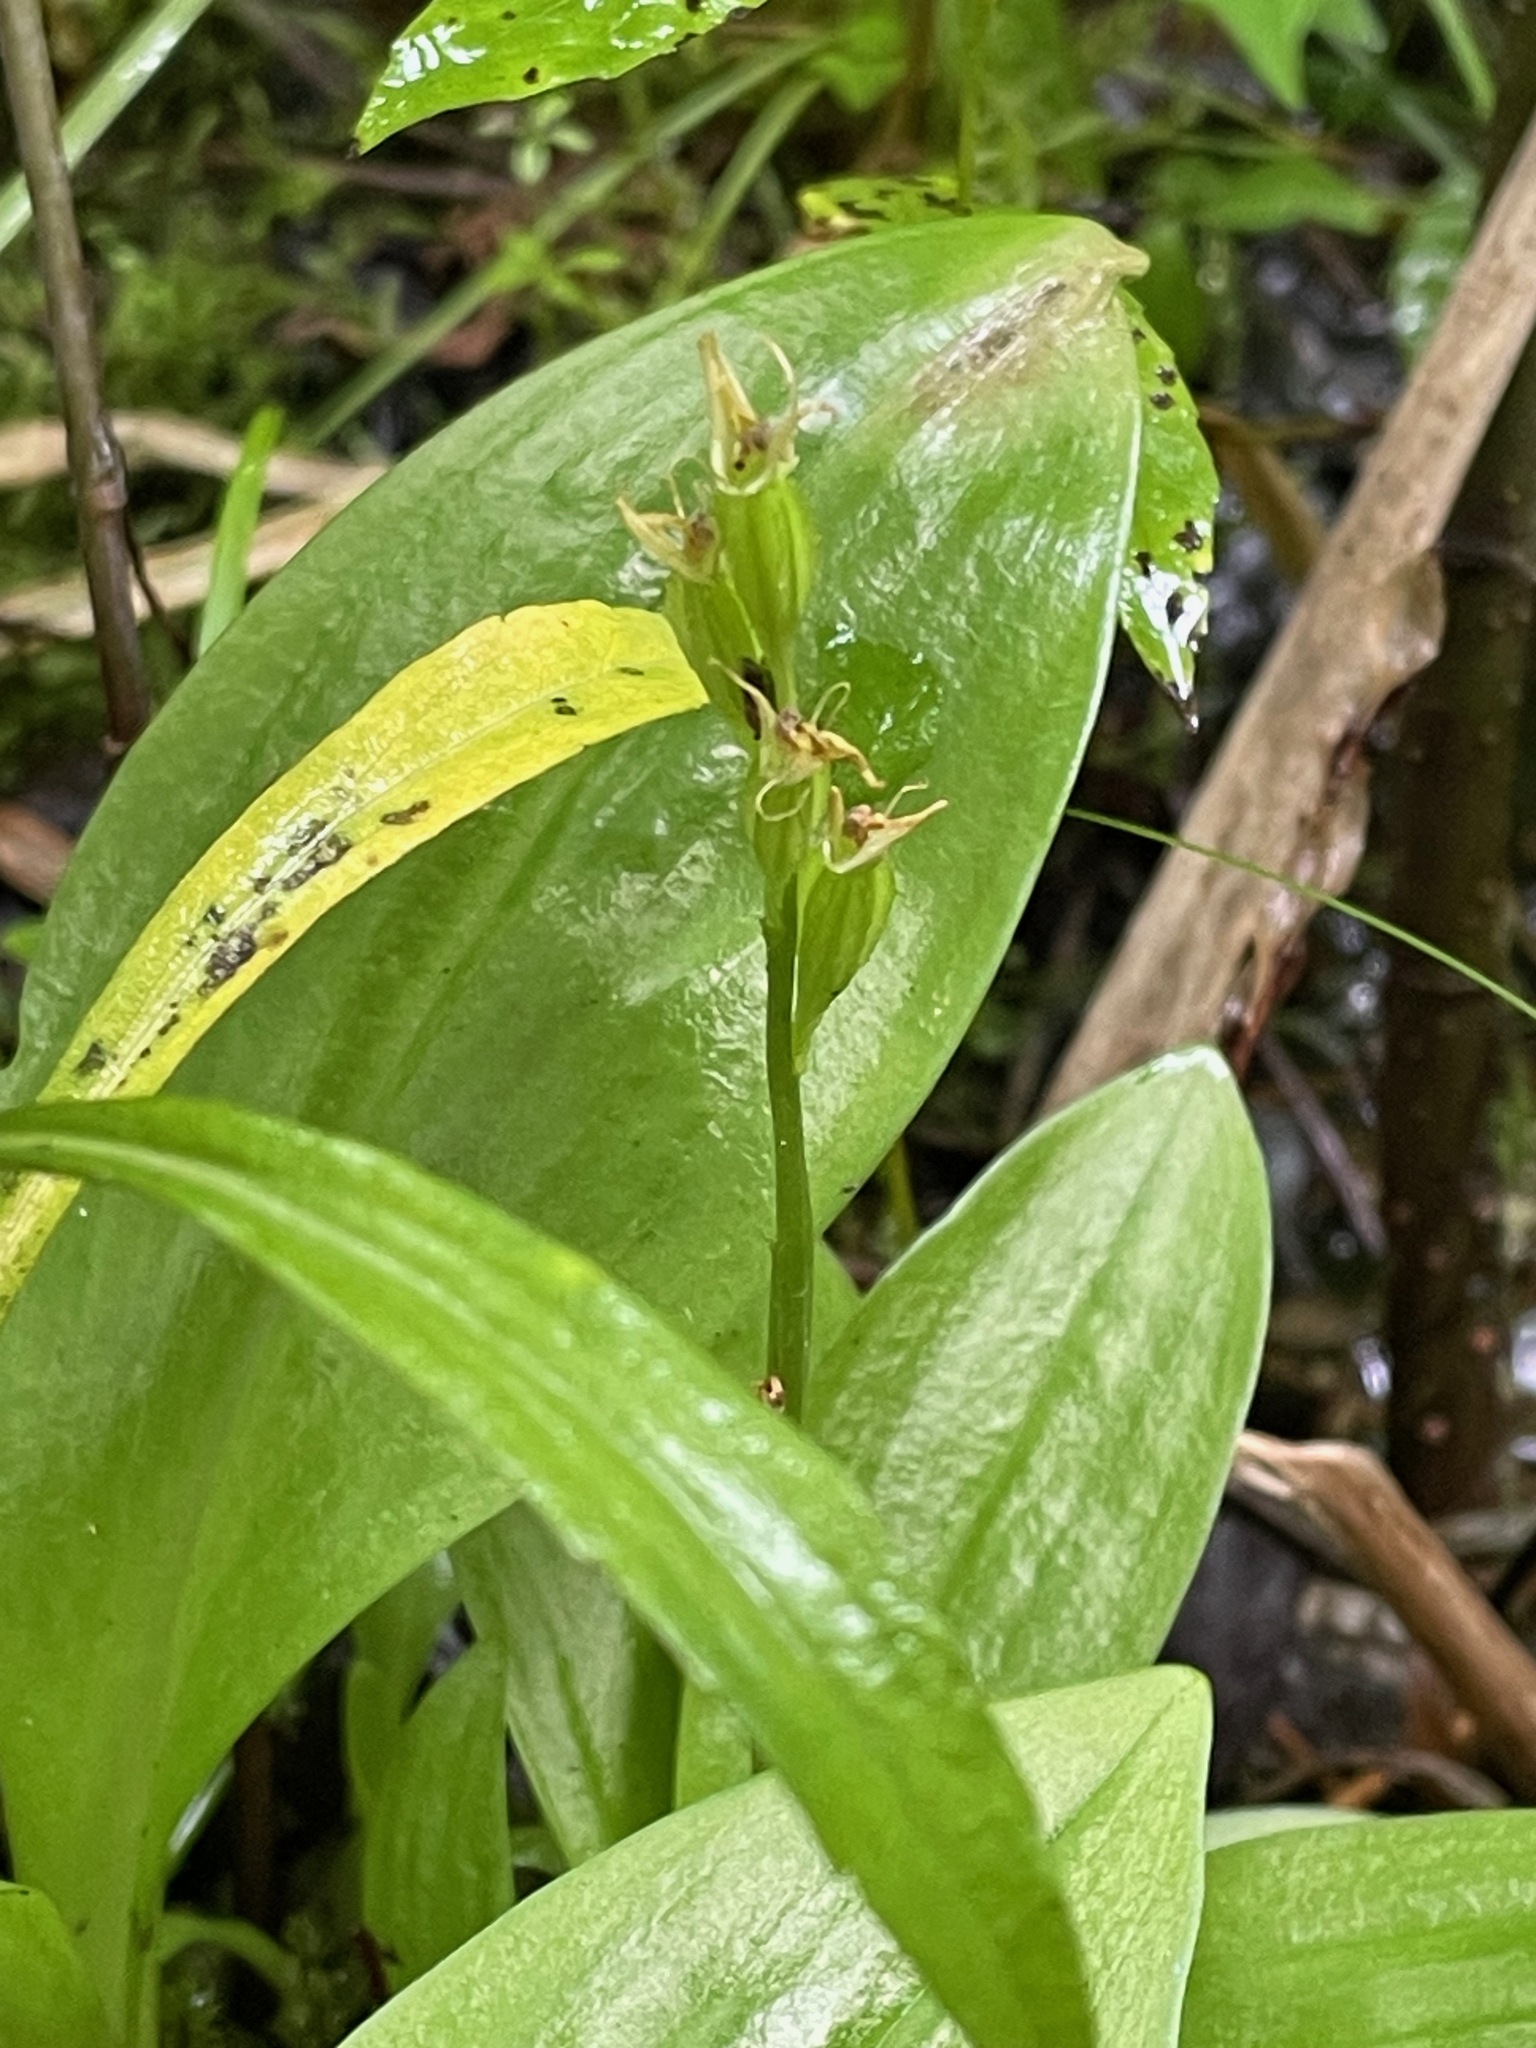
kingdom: Animalia
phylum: Arthropoda
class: Insecta
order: Coleoptera
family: Curculionidae
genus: Liparis
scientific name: Liparis loeselii
